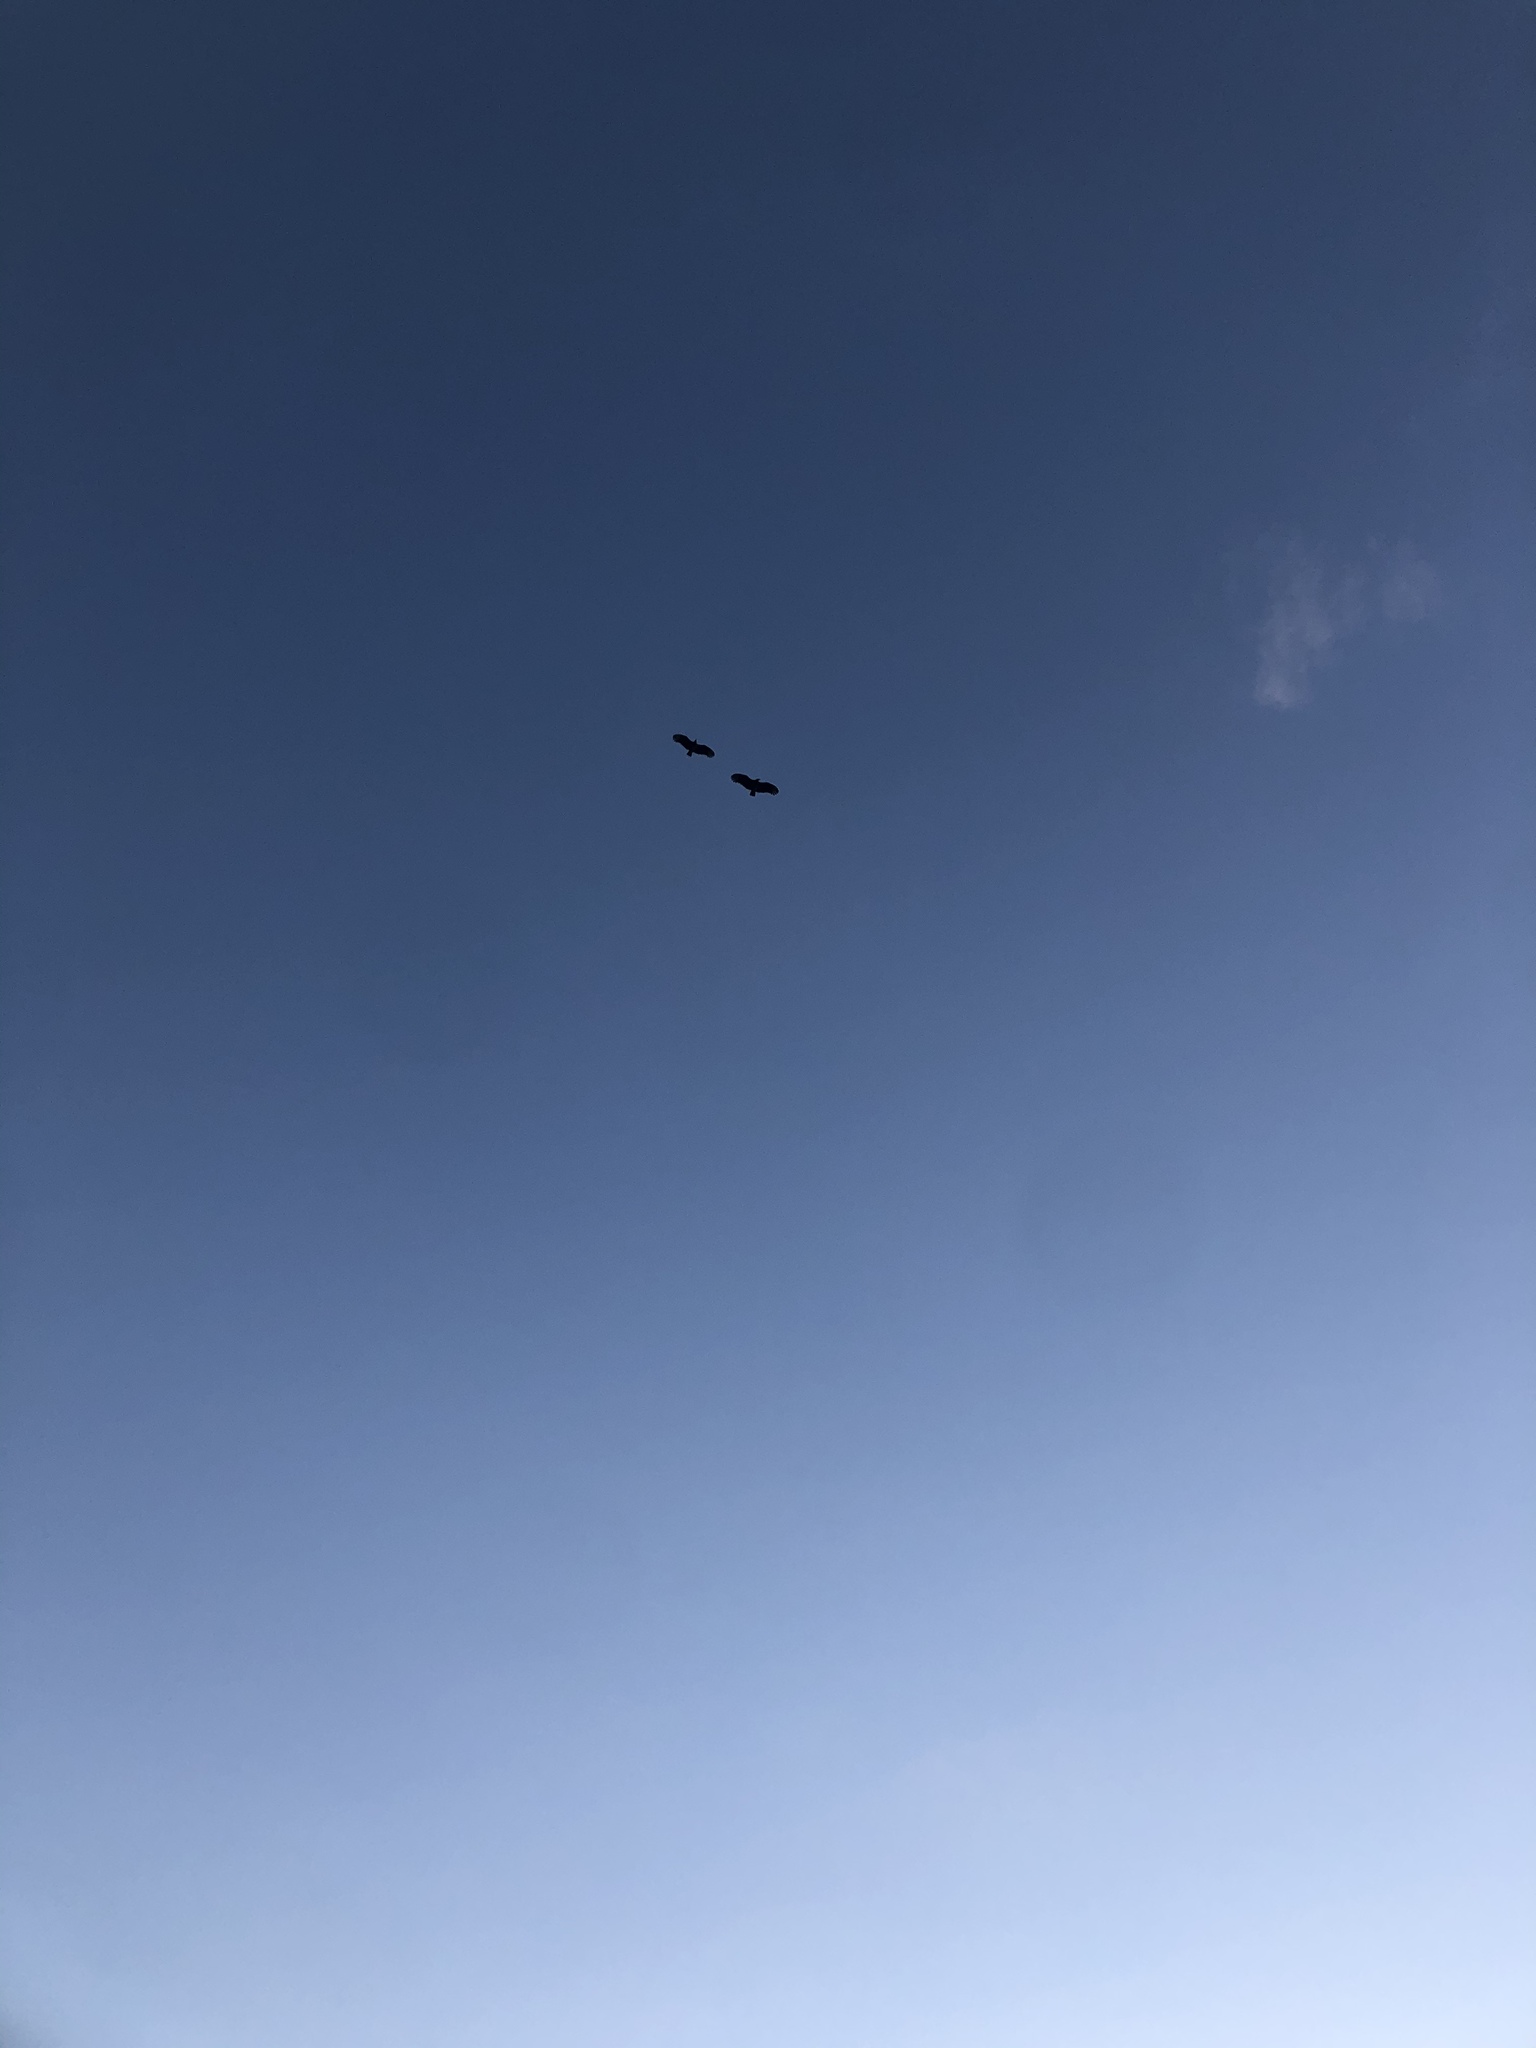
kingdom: Animalia
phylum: Chordata
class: Aves
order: Accipitriformes
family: Cathartidae
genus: Coragyps
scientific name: Coragyps atratus
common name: Black vulture
